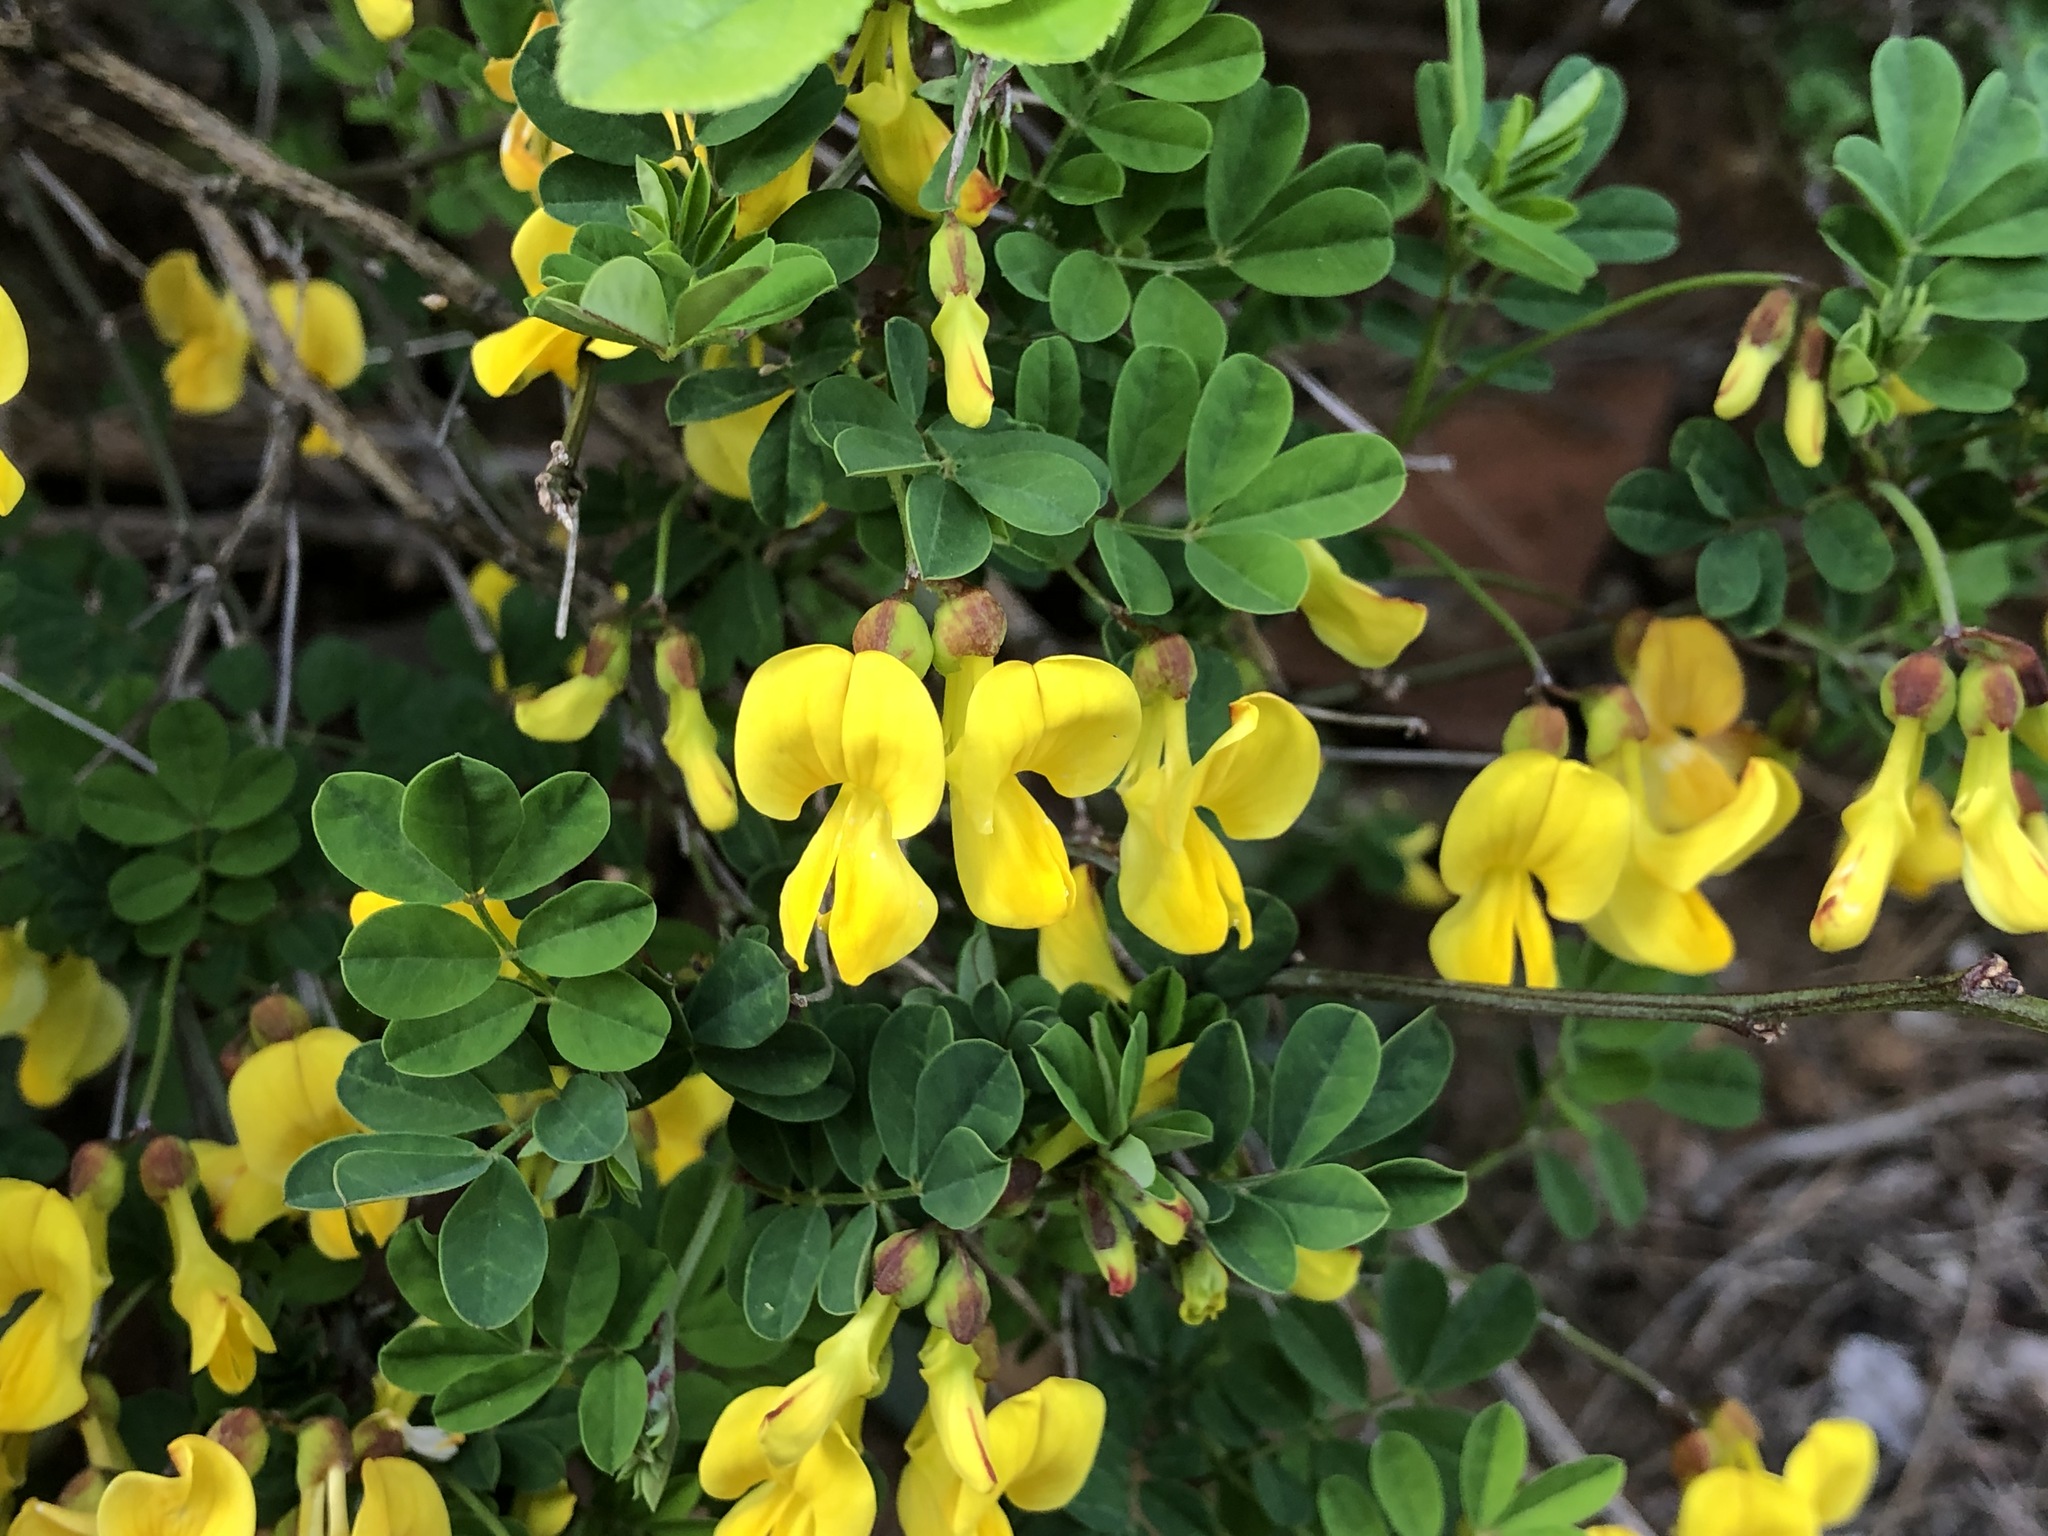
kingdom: Plantae
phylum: Tracheophyta
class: Magnoliopsida
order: Fabales
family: Fabaceae
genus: Hippocrepis
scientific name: Hippocrepis emerus
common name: Scorpion senna
